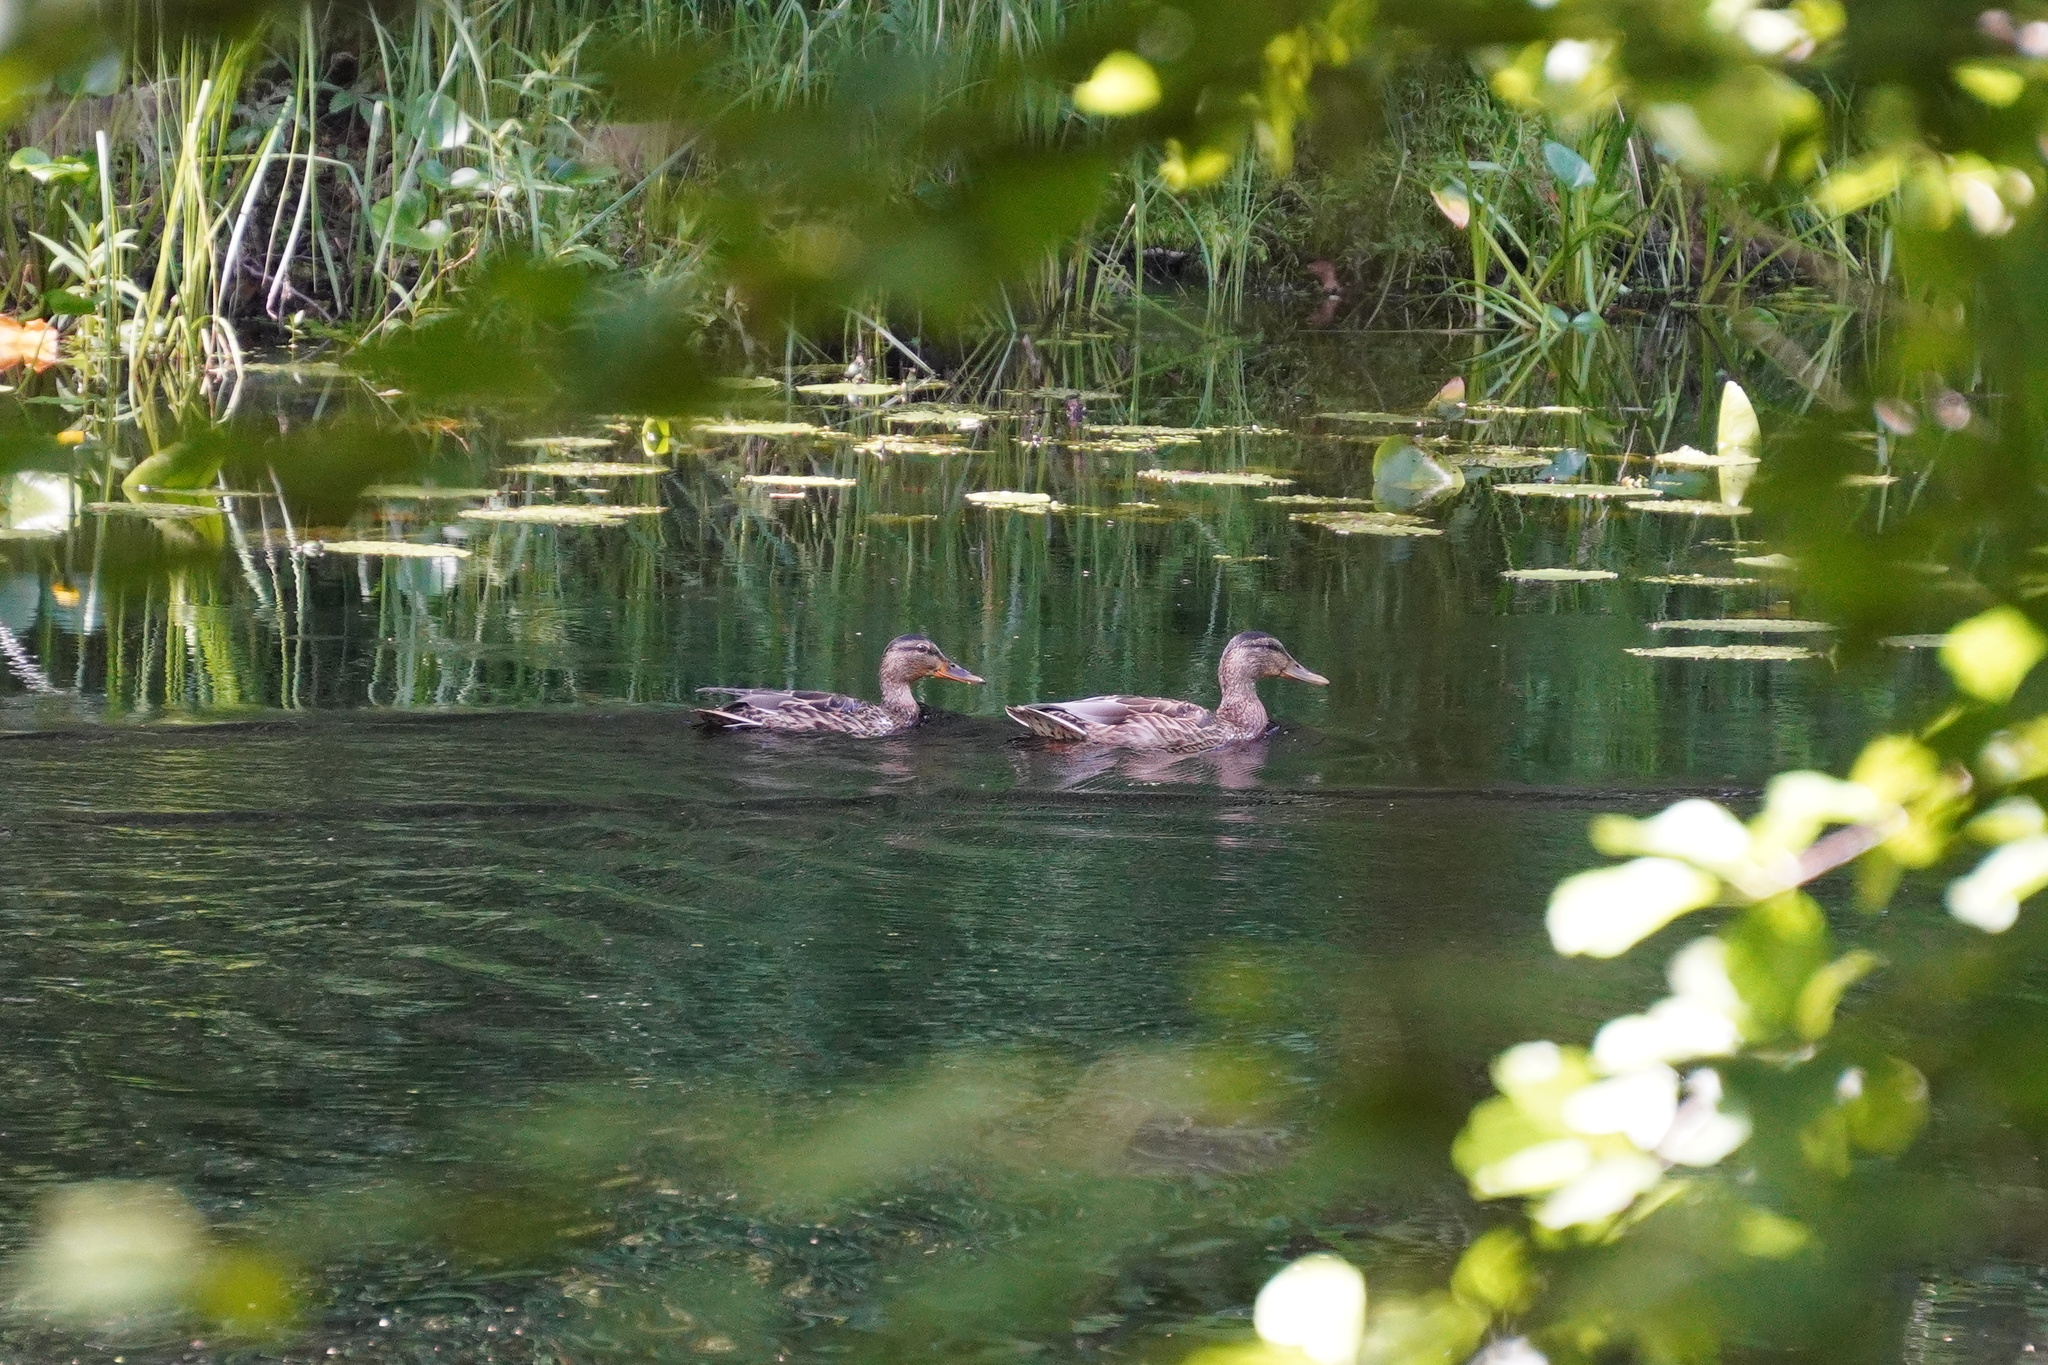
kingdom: Animalia
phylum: Chordata
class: Aves
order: Anseriformes
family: Anatidae
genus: Anas
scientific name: Anas platyrhynchos
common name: Mallard
